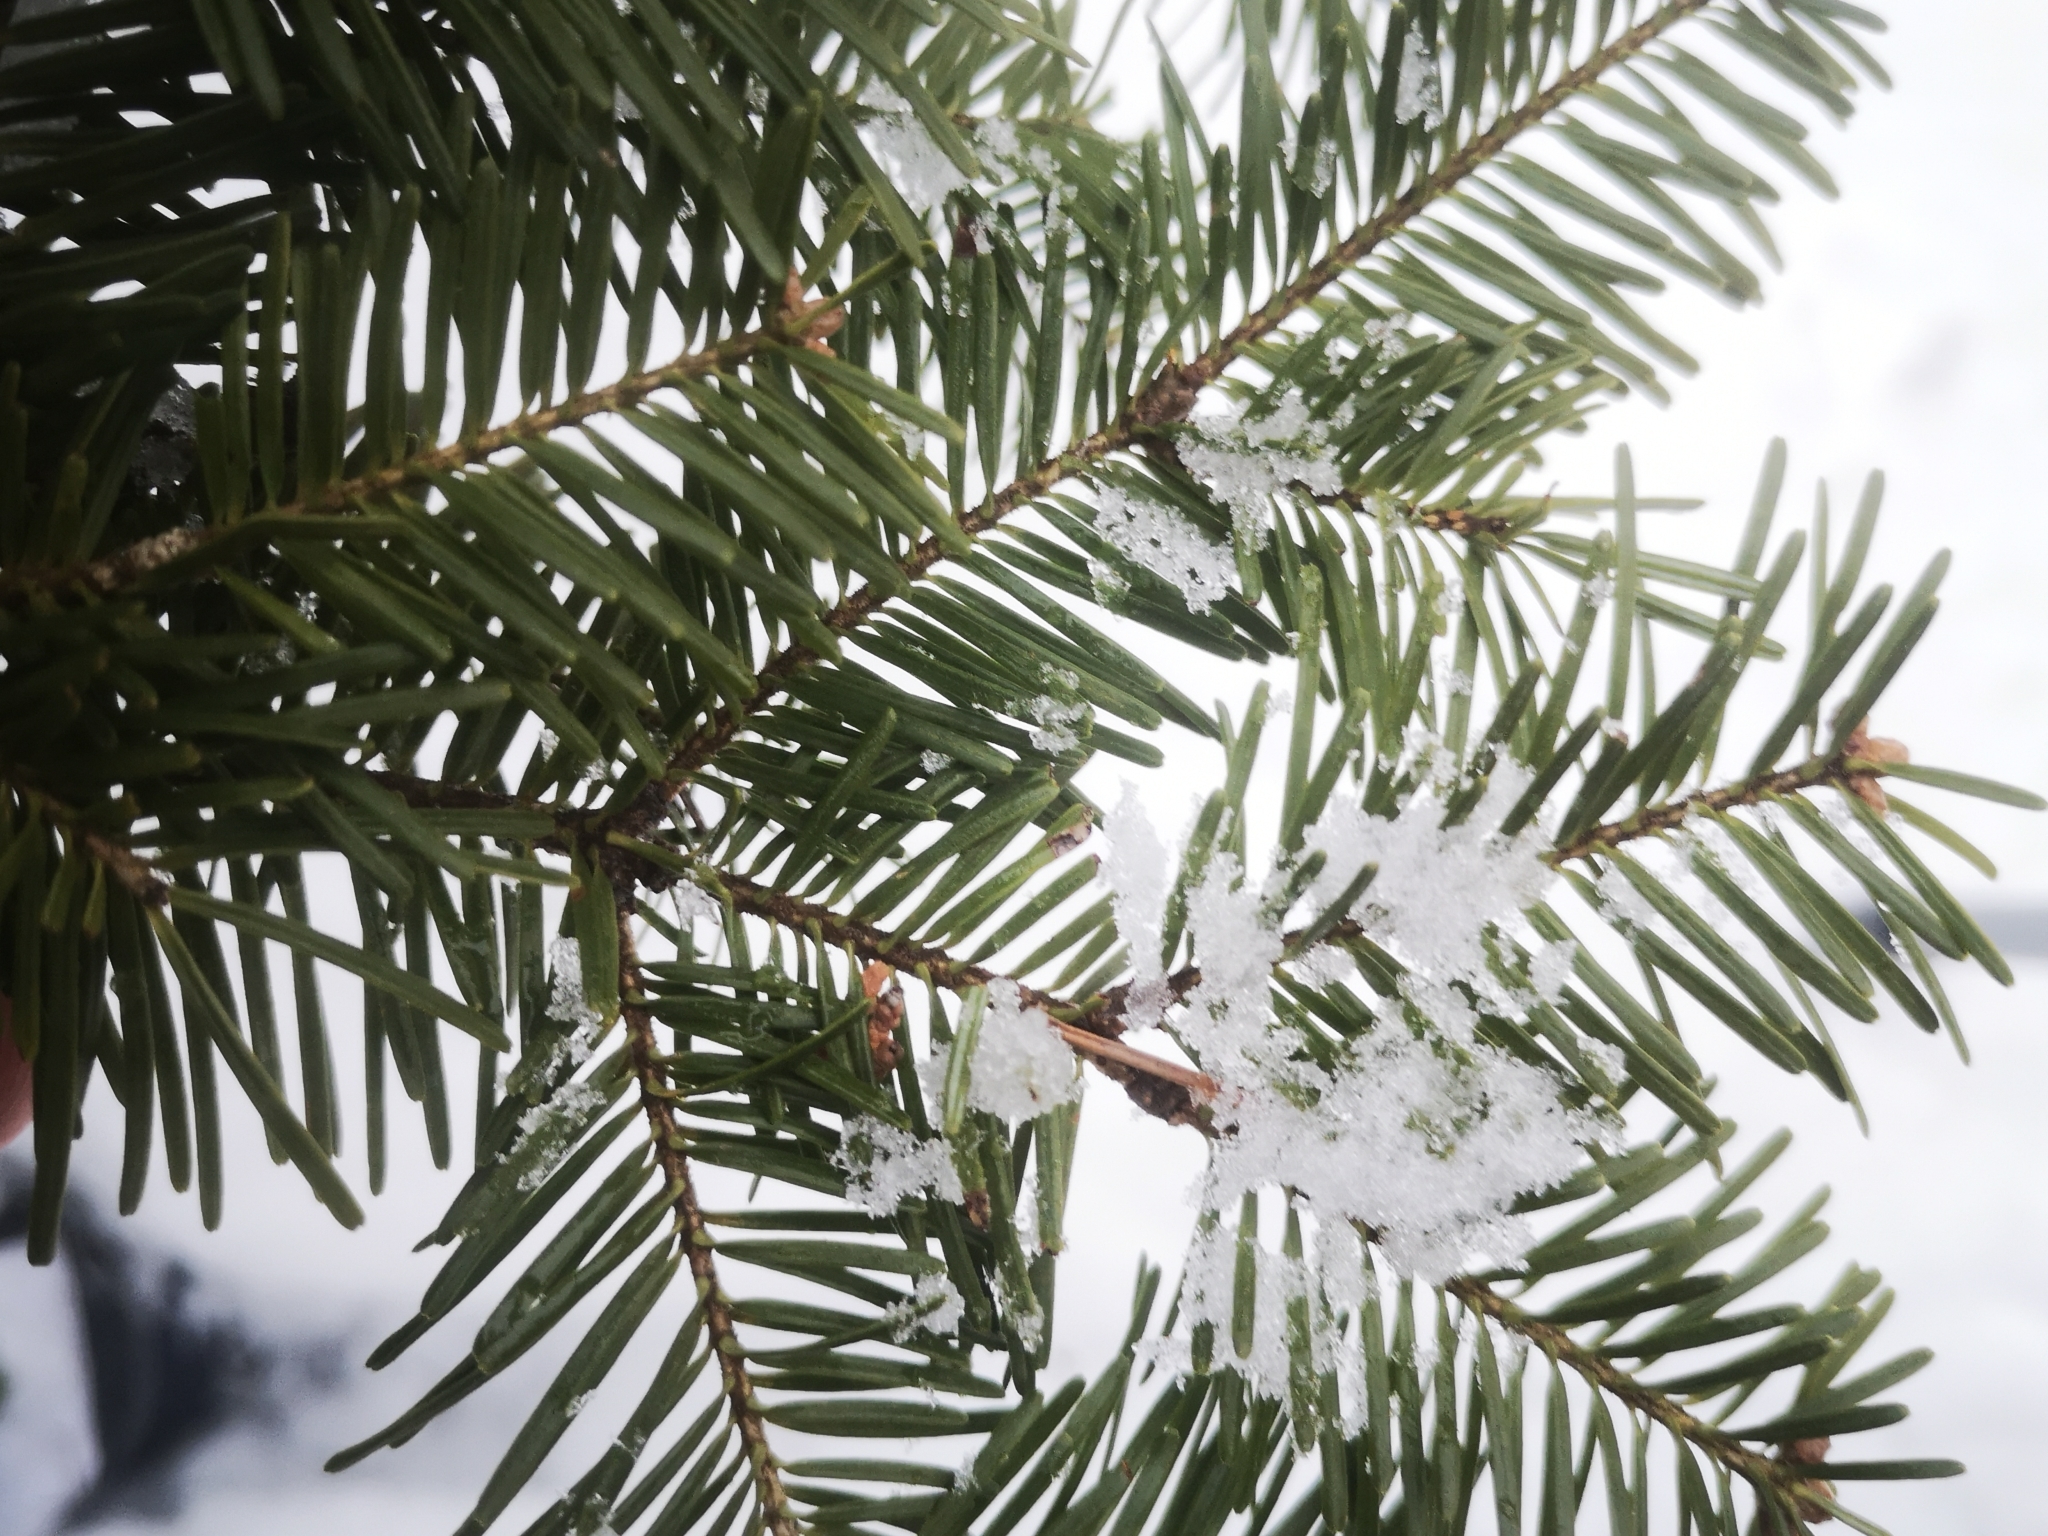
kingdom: Plantae
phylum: Tracheophyta
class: Pinopsida
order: Pinales
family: Pinaceae
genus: Abies
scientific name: Abies balsamea
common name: Balsam fir
